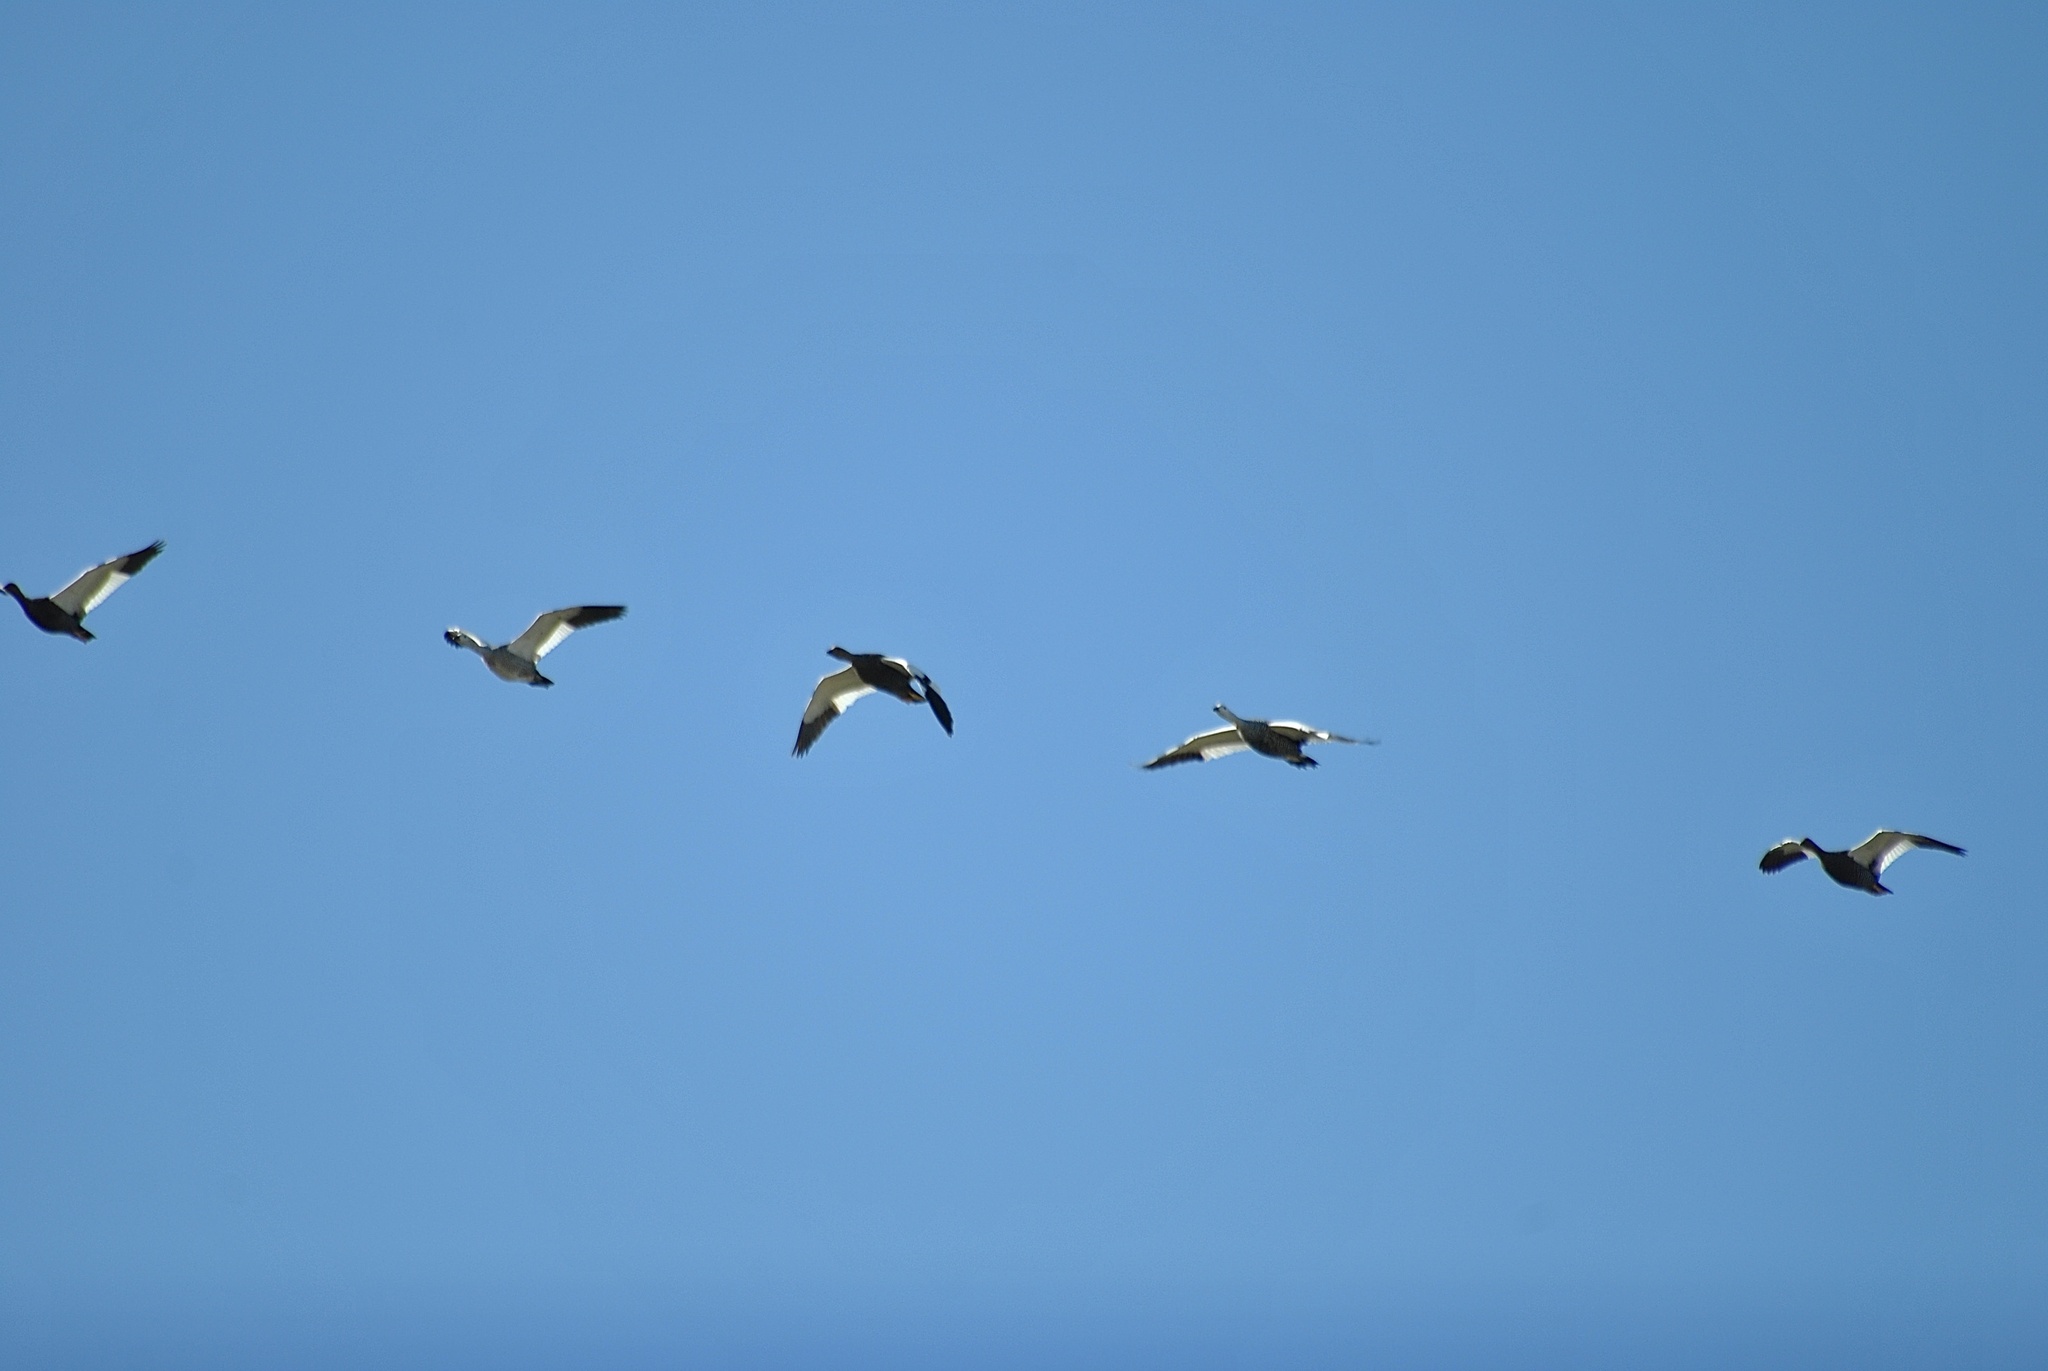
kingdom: Animalia
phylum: Chordata
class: Aves
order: Anseriformes
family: Anatidae
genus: Chloephaga
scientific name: Chloephaga picta
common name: Upland goose
